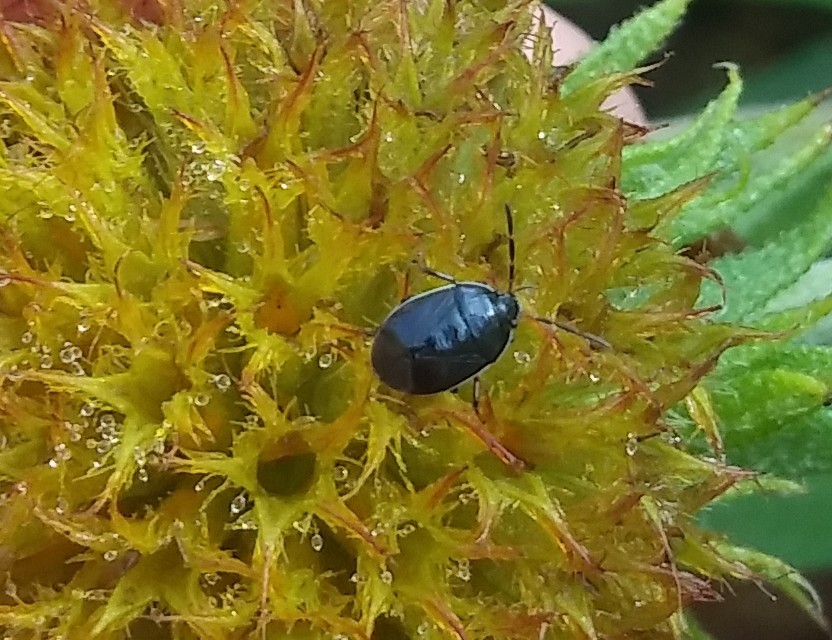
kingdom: Animalia
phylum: Arthropoda
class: Insecta
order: Hemiptera
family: Cydnidae
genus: Sehirus
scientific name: Sehirus cinctus
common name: White-margined burrower bug
